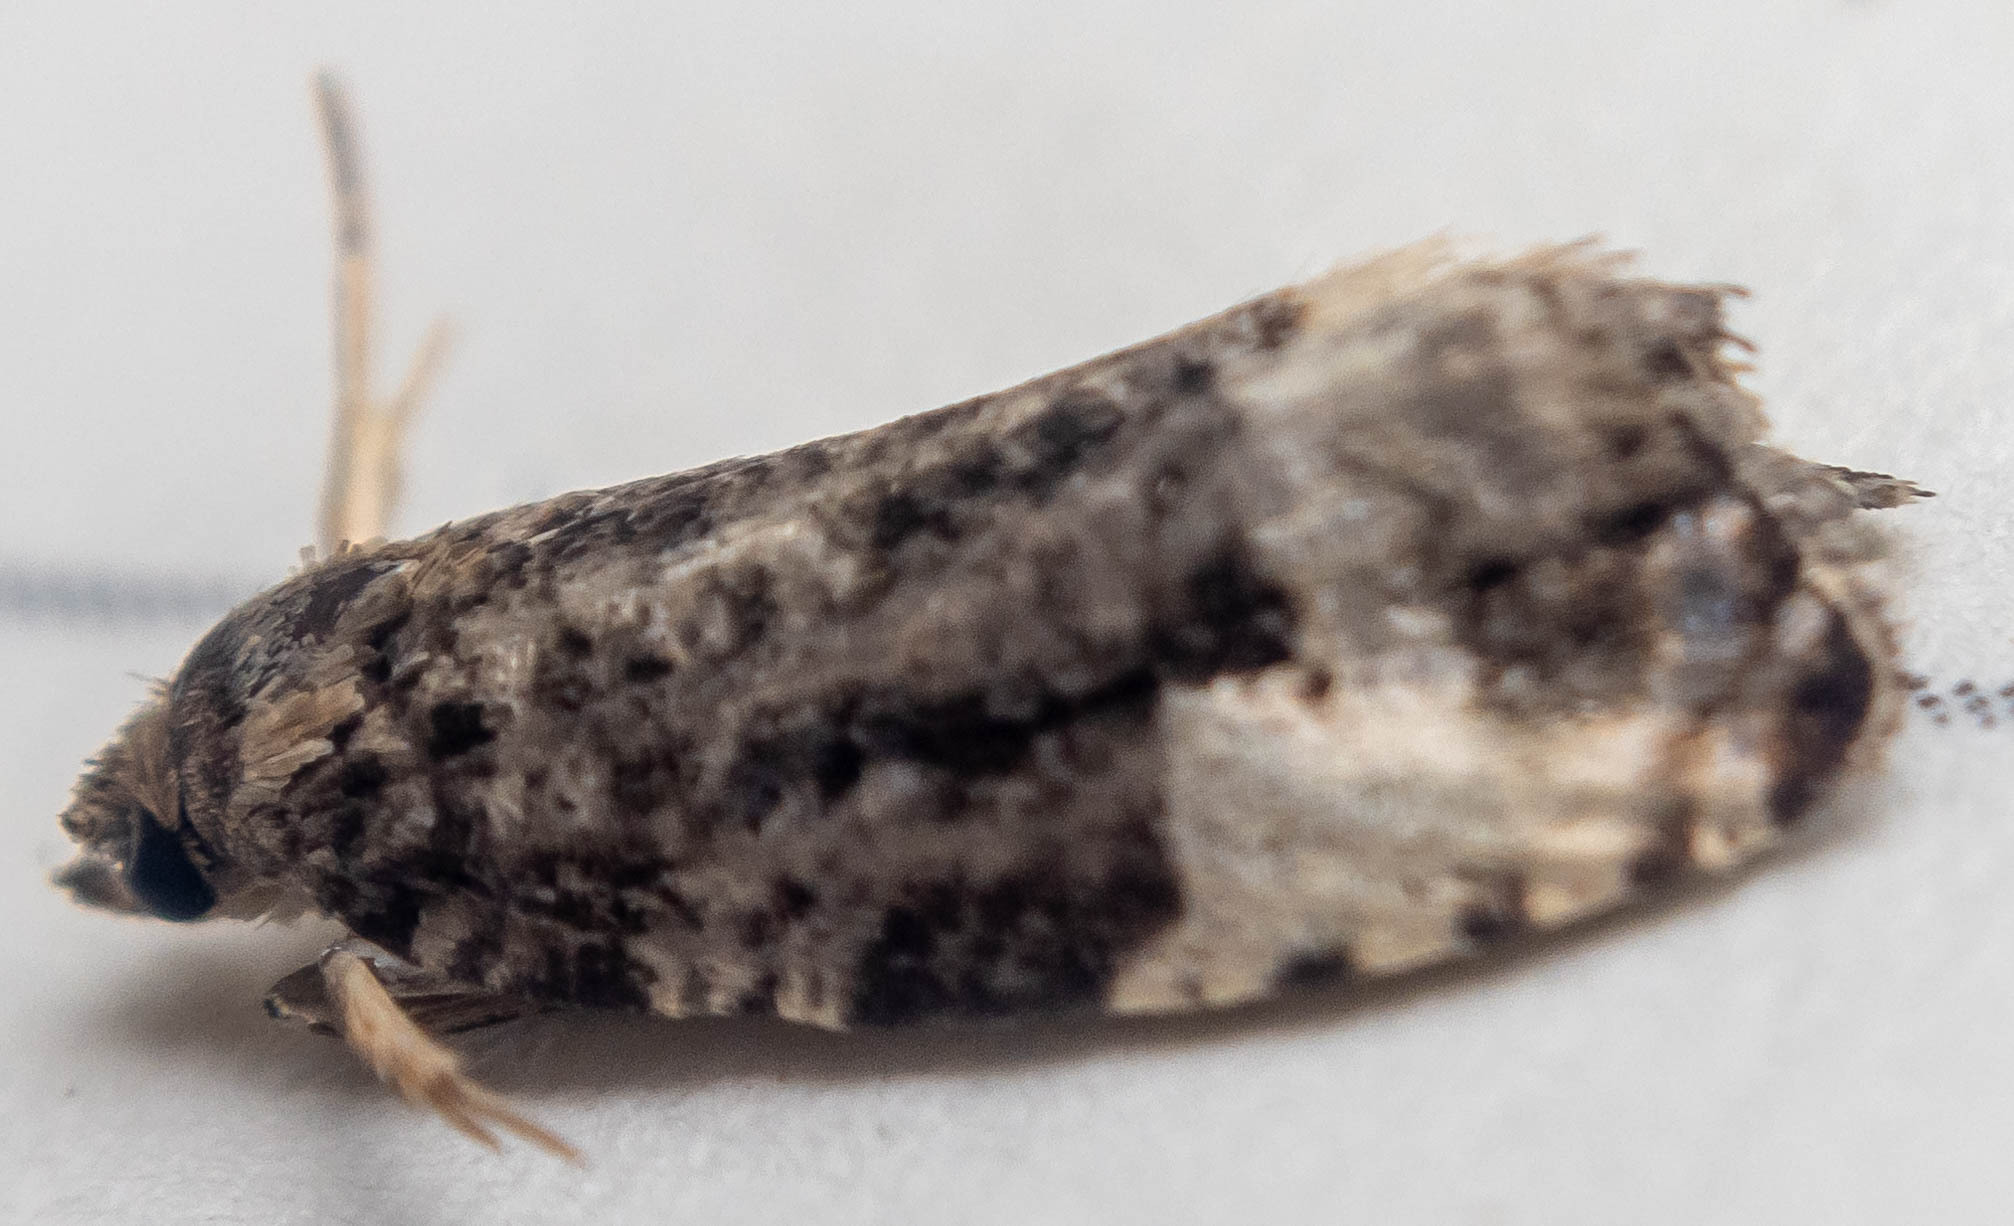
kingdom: Animalia
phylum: Arthropoda
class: Insecta
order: Lepidoptera
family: Tortricidae
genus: Hedya
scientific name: Hedya pruniana
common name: Plum tortrix
